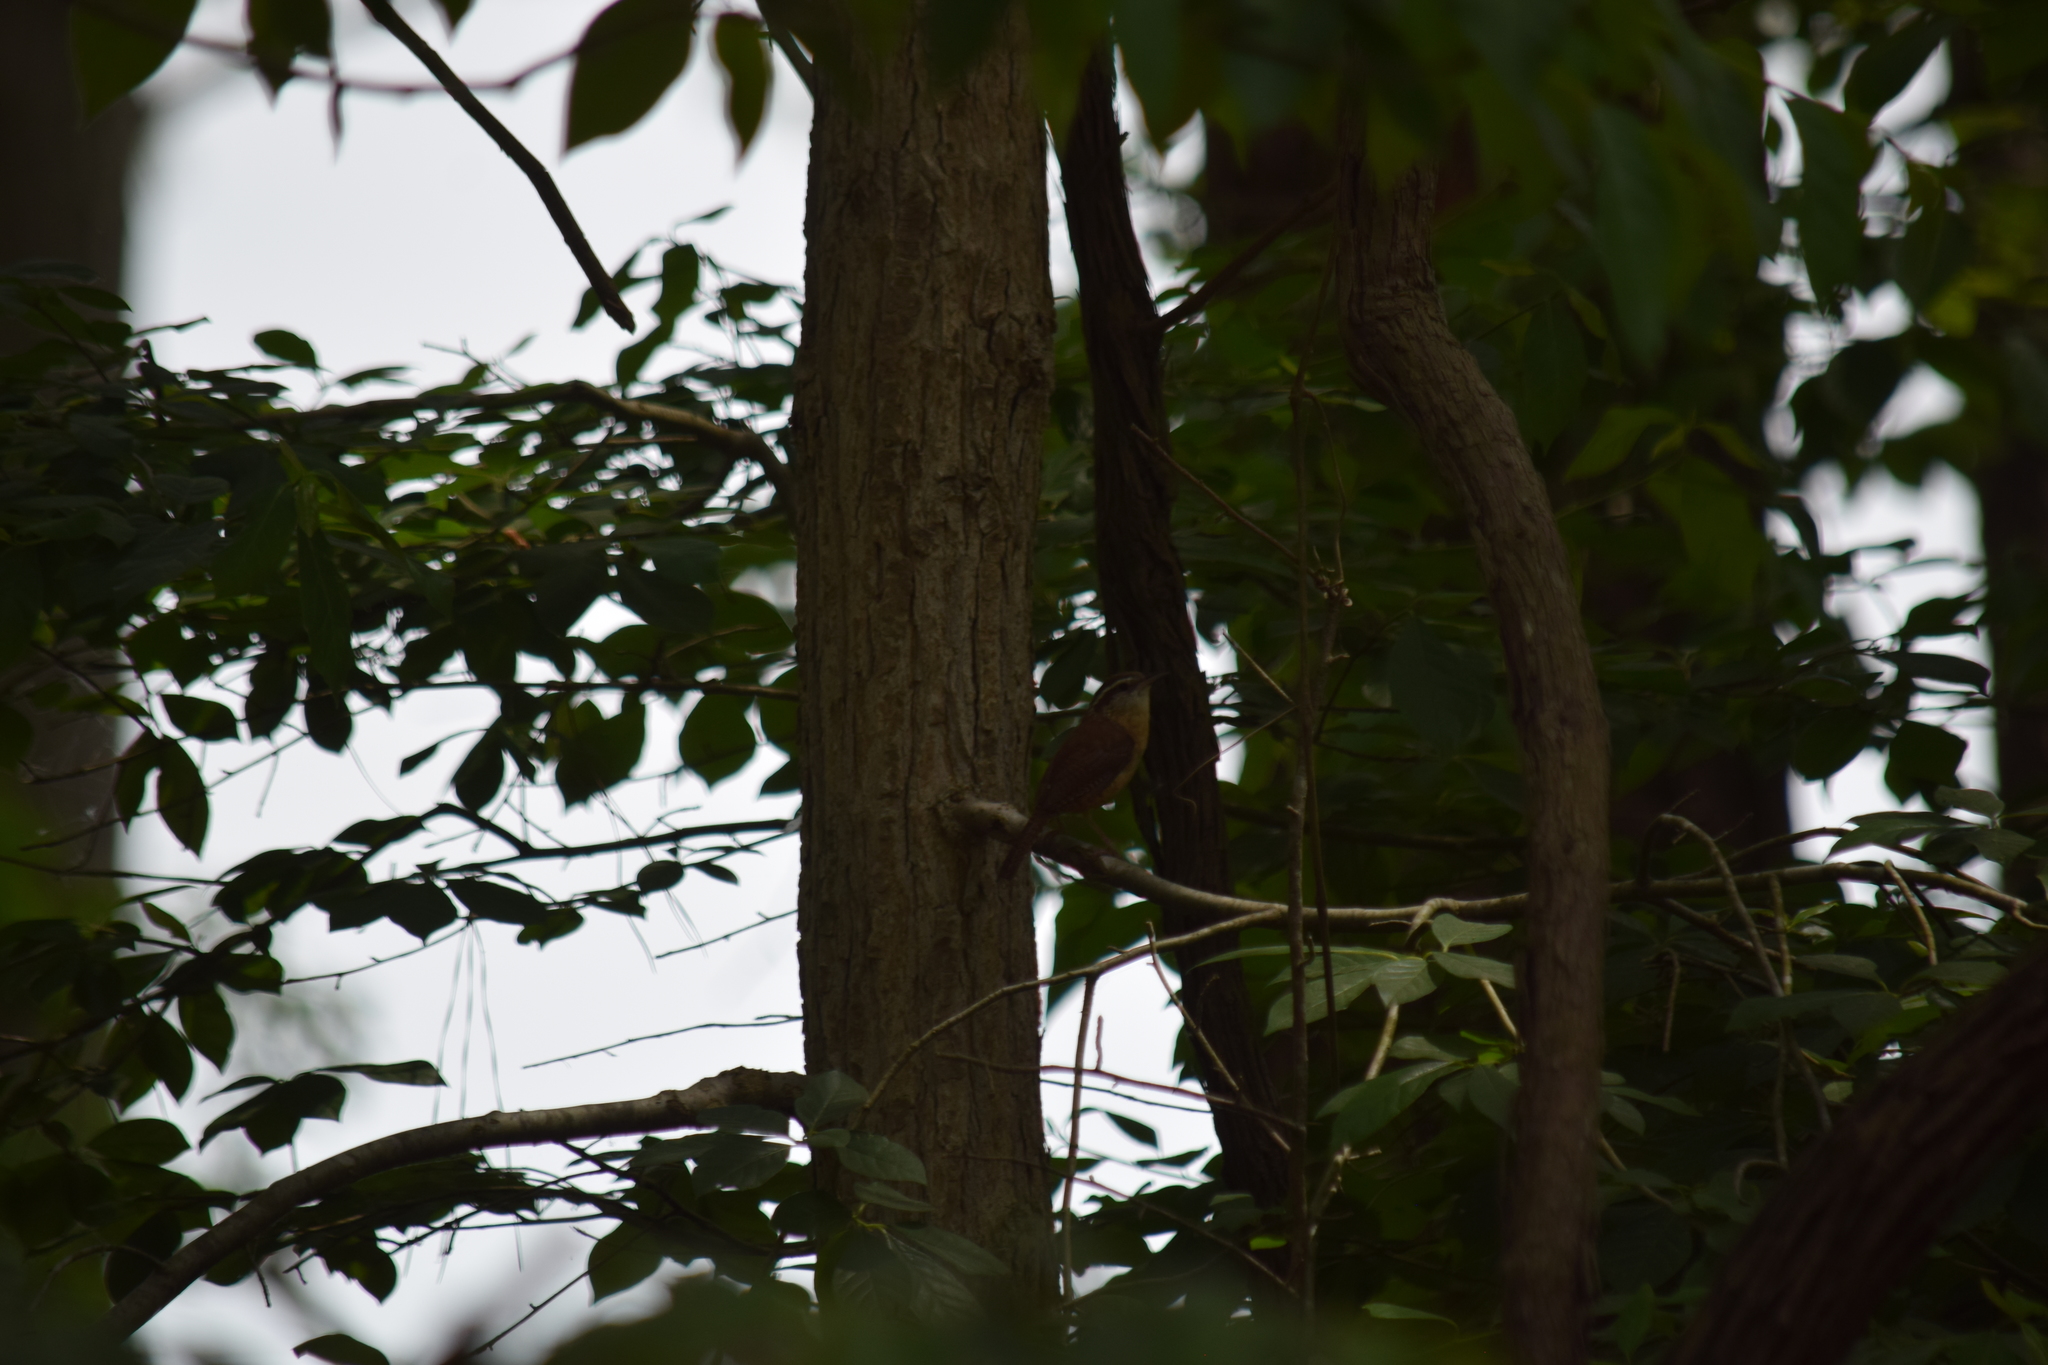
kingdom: Animalia
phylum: Chordata
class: Aves
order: Passeriformes
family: Troglodytidae
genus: Thryothorus
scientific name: Thryothorus ludovicianus
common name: Carolina wren
